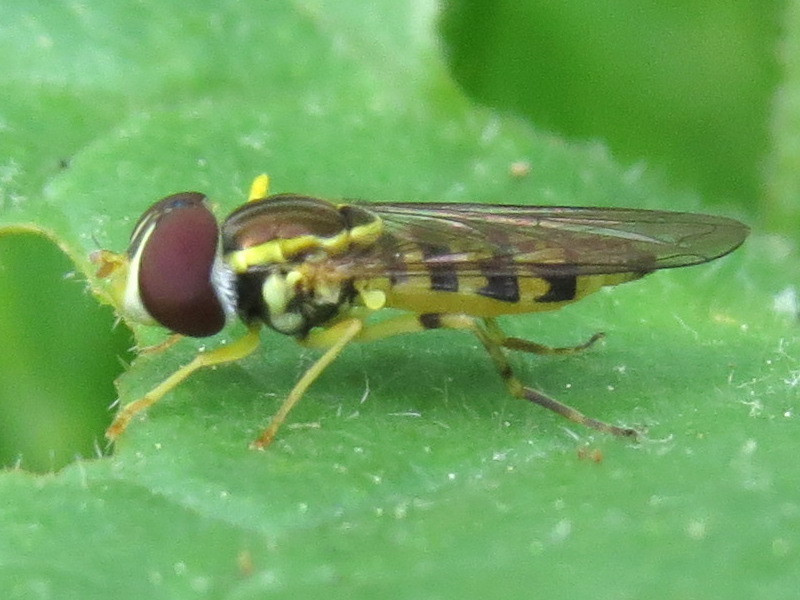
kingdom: Animalia
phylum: Arthropoda
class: Insecta
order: Diptera
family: Syrphidae
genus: Toxomerus
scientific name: Toxomerus geminatus
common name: Eastern calligrapher
